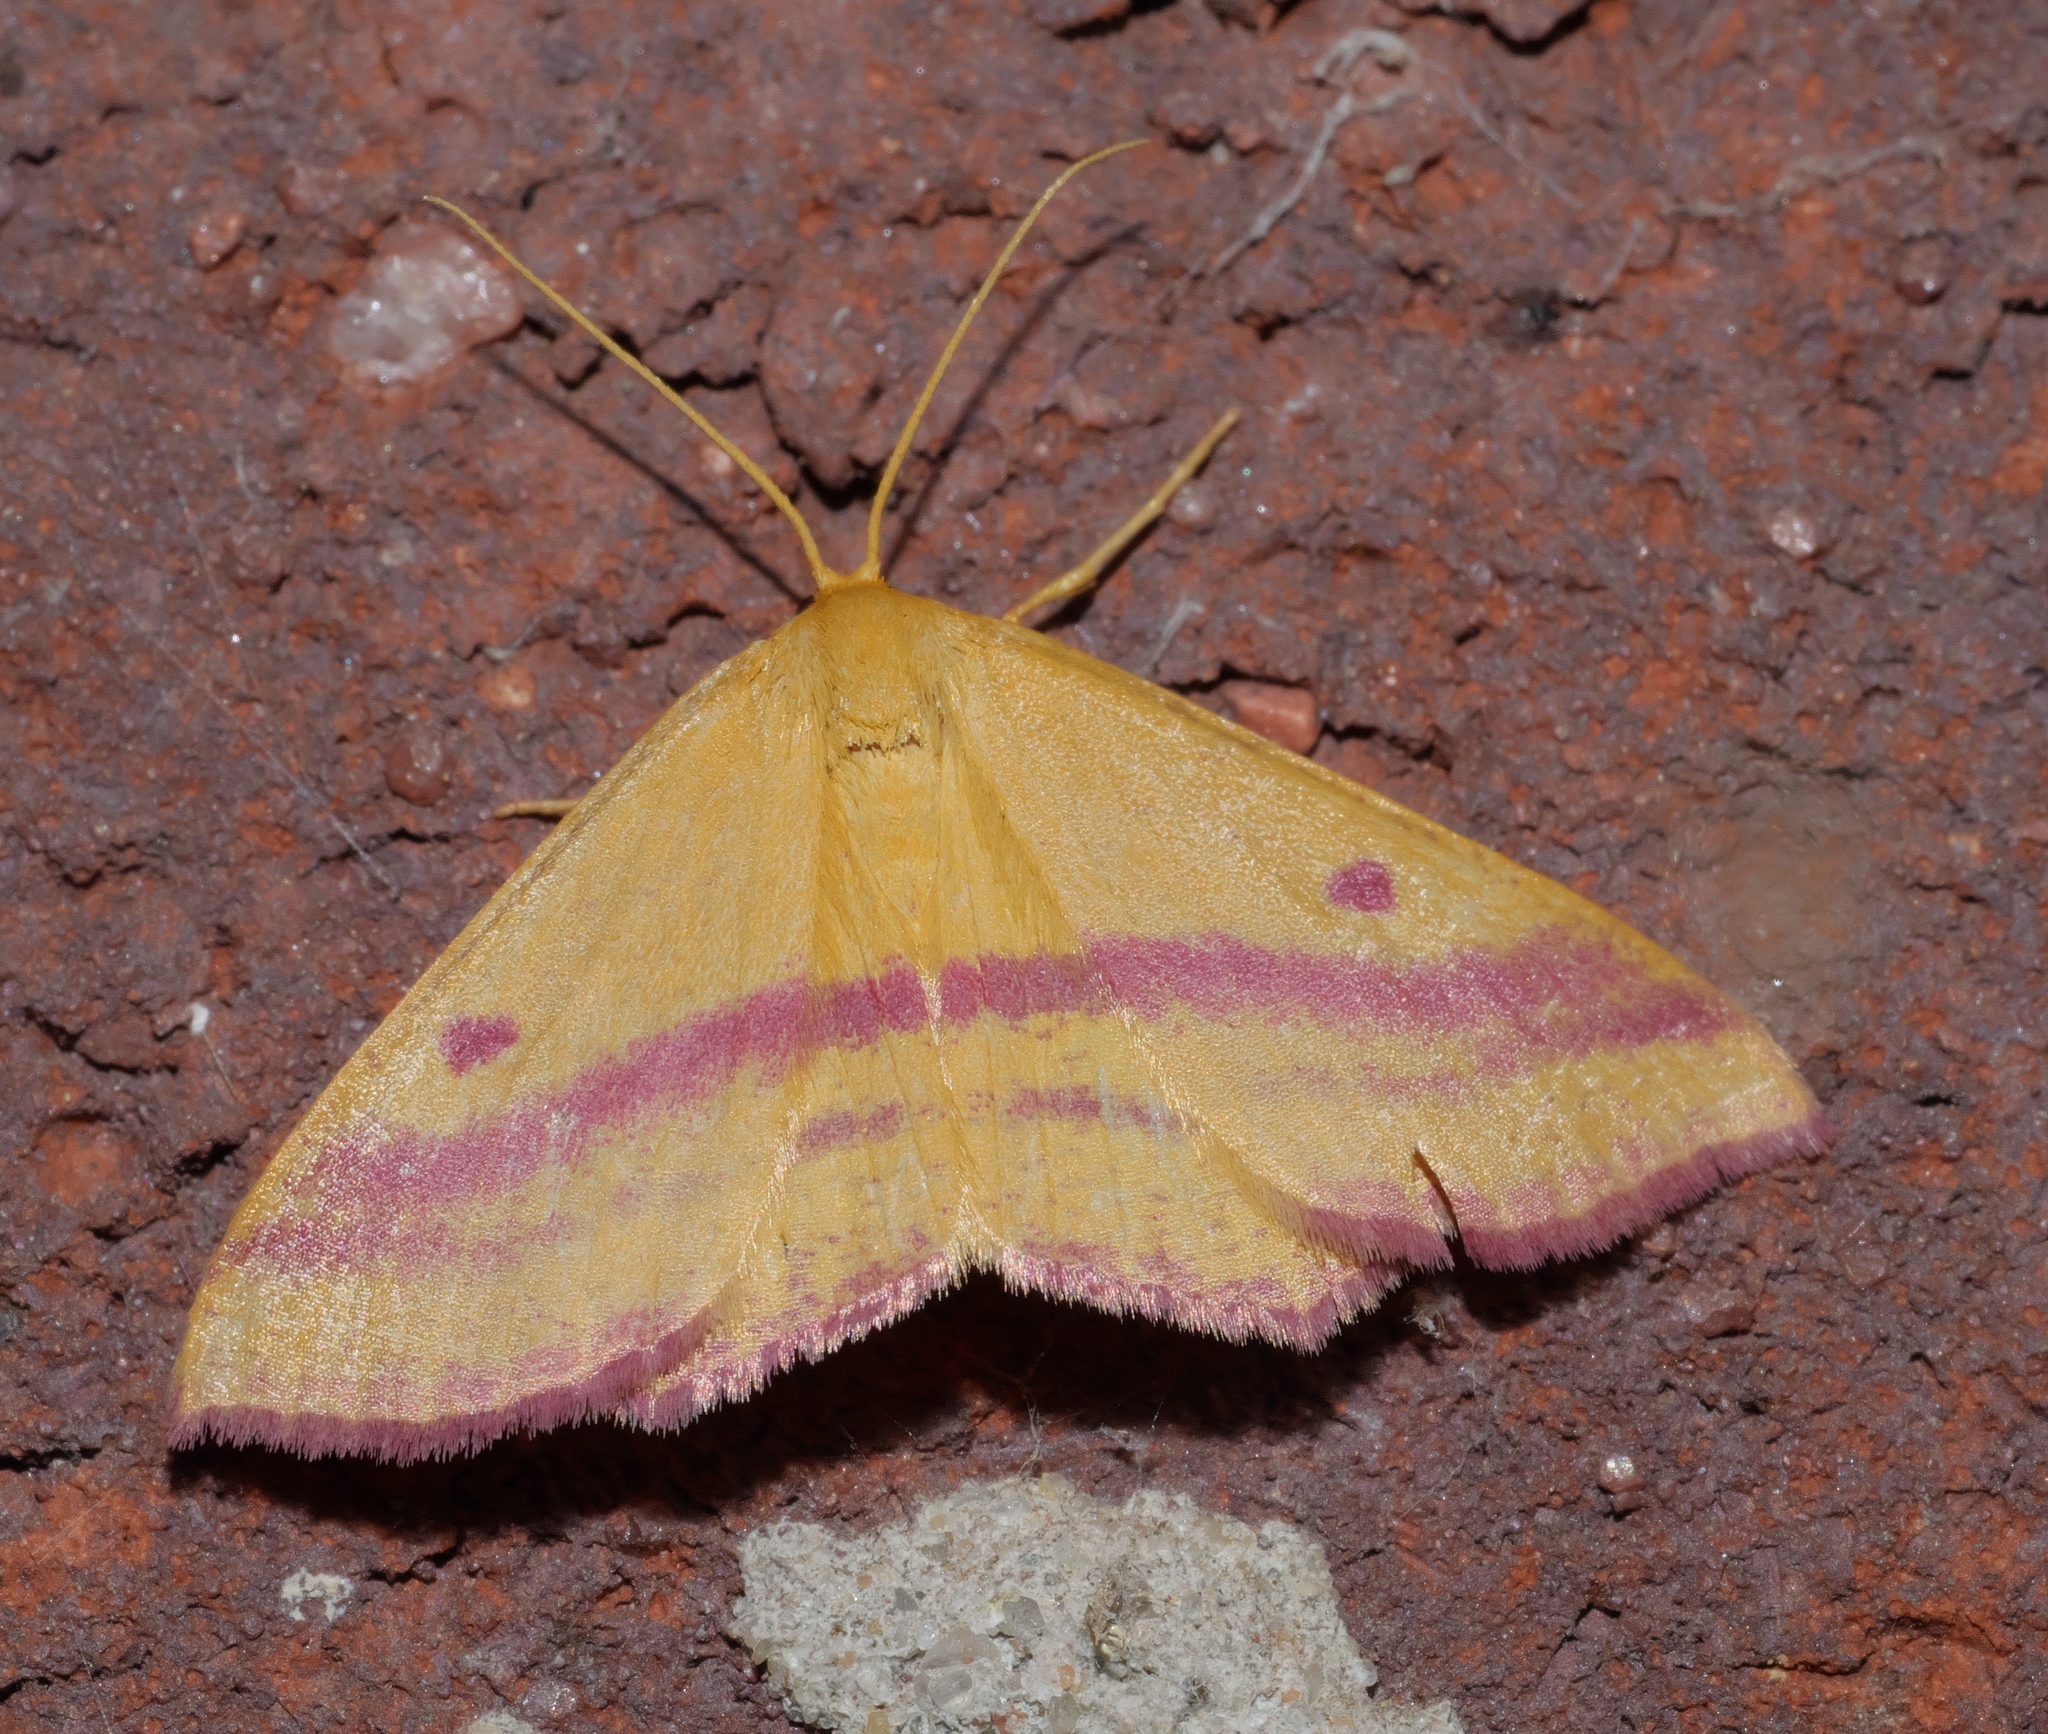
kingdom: Animalia
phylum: Arthropoda
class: Insecta
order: Lepidoptera
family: Geometridae
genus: Haematopis
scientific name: Haematopis grataria
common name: Chickweed geometer
